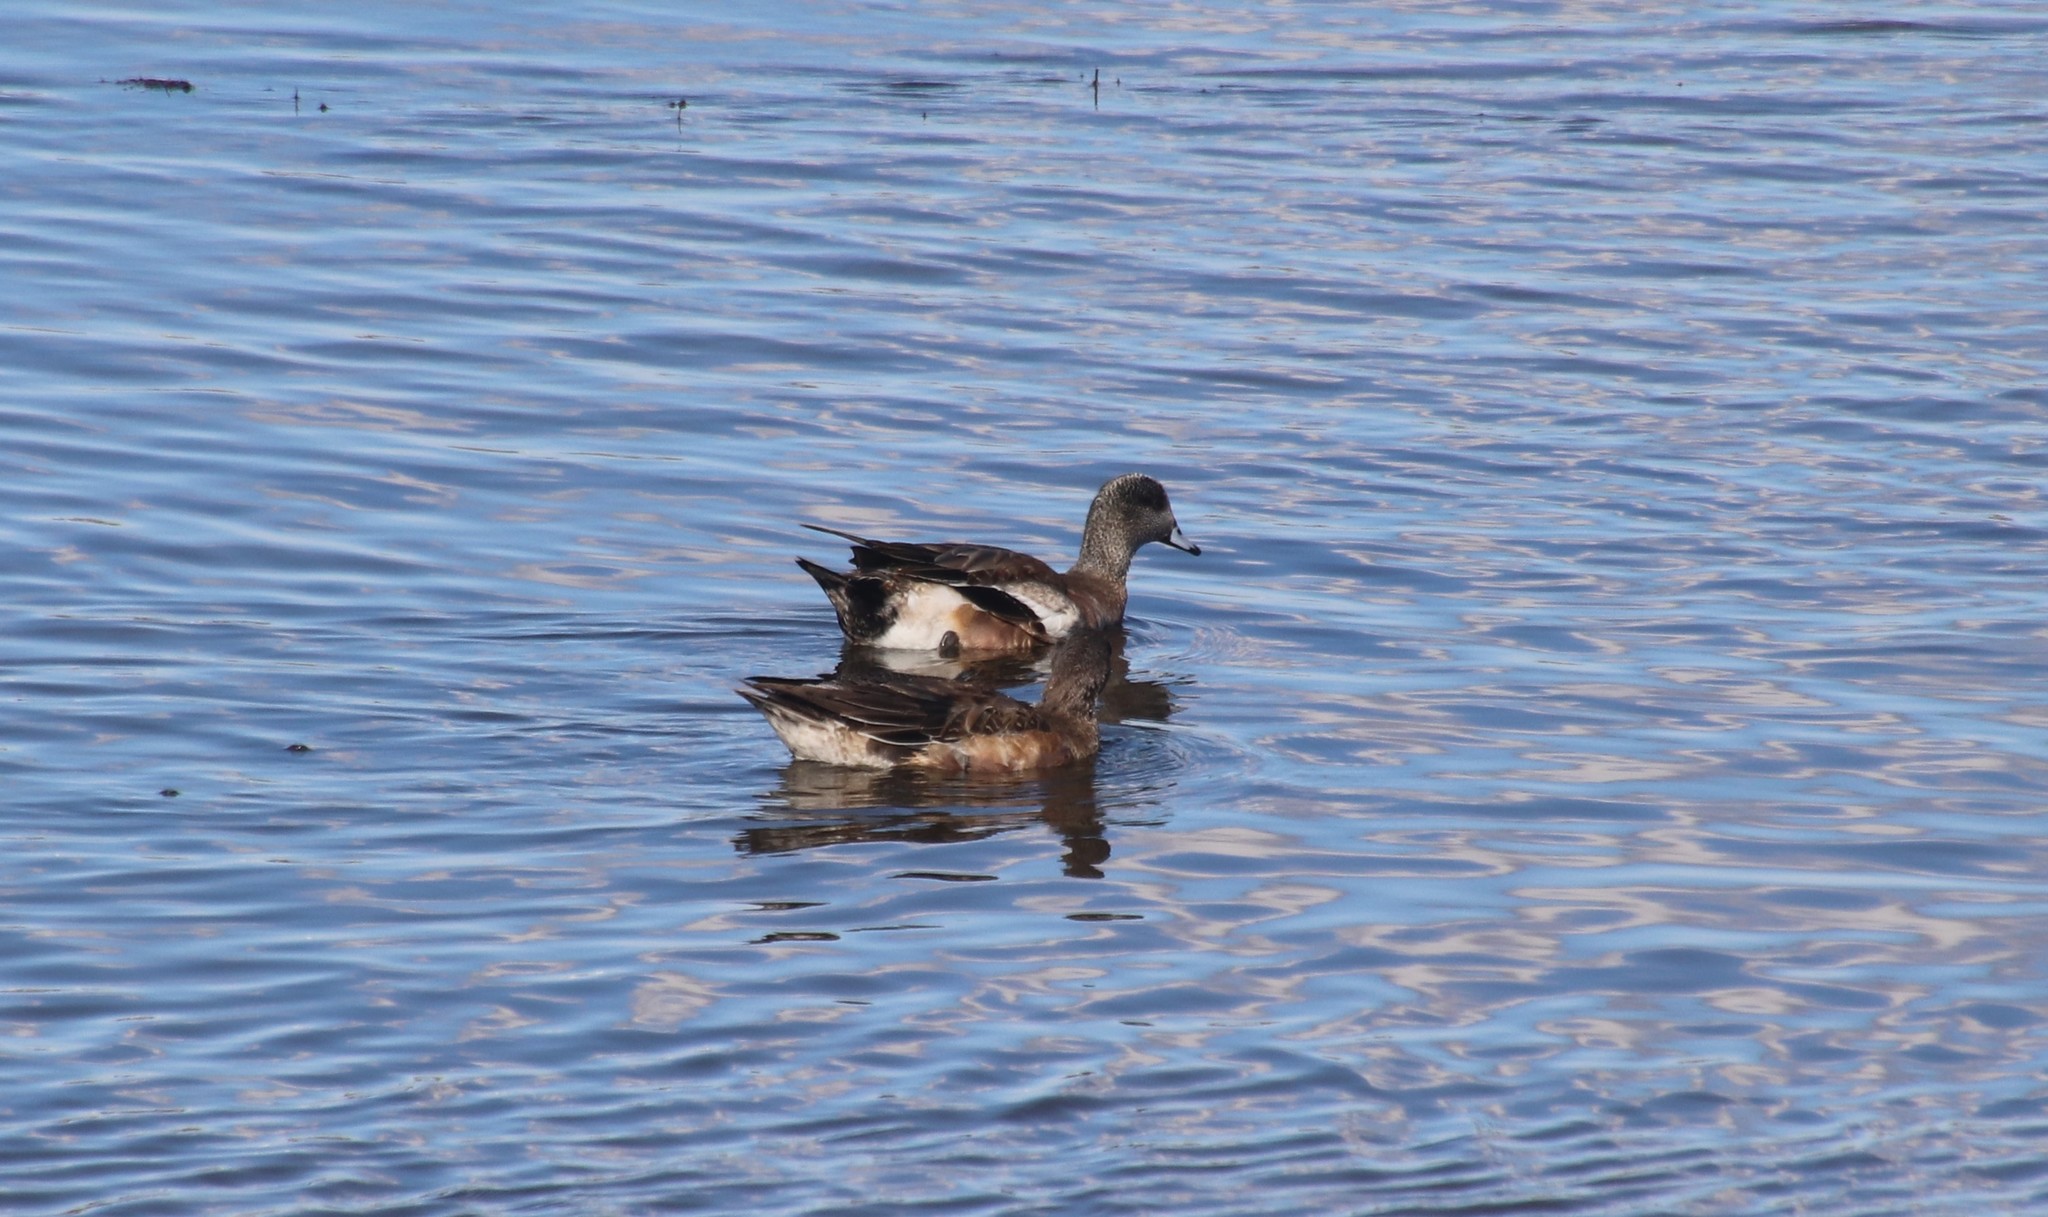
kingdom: Animalia
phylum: Chordata
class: Aves
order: Anseriformes
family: Anatidae
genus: Mareca
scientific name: Mareca americana
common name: American wigeon
